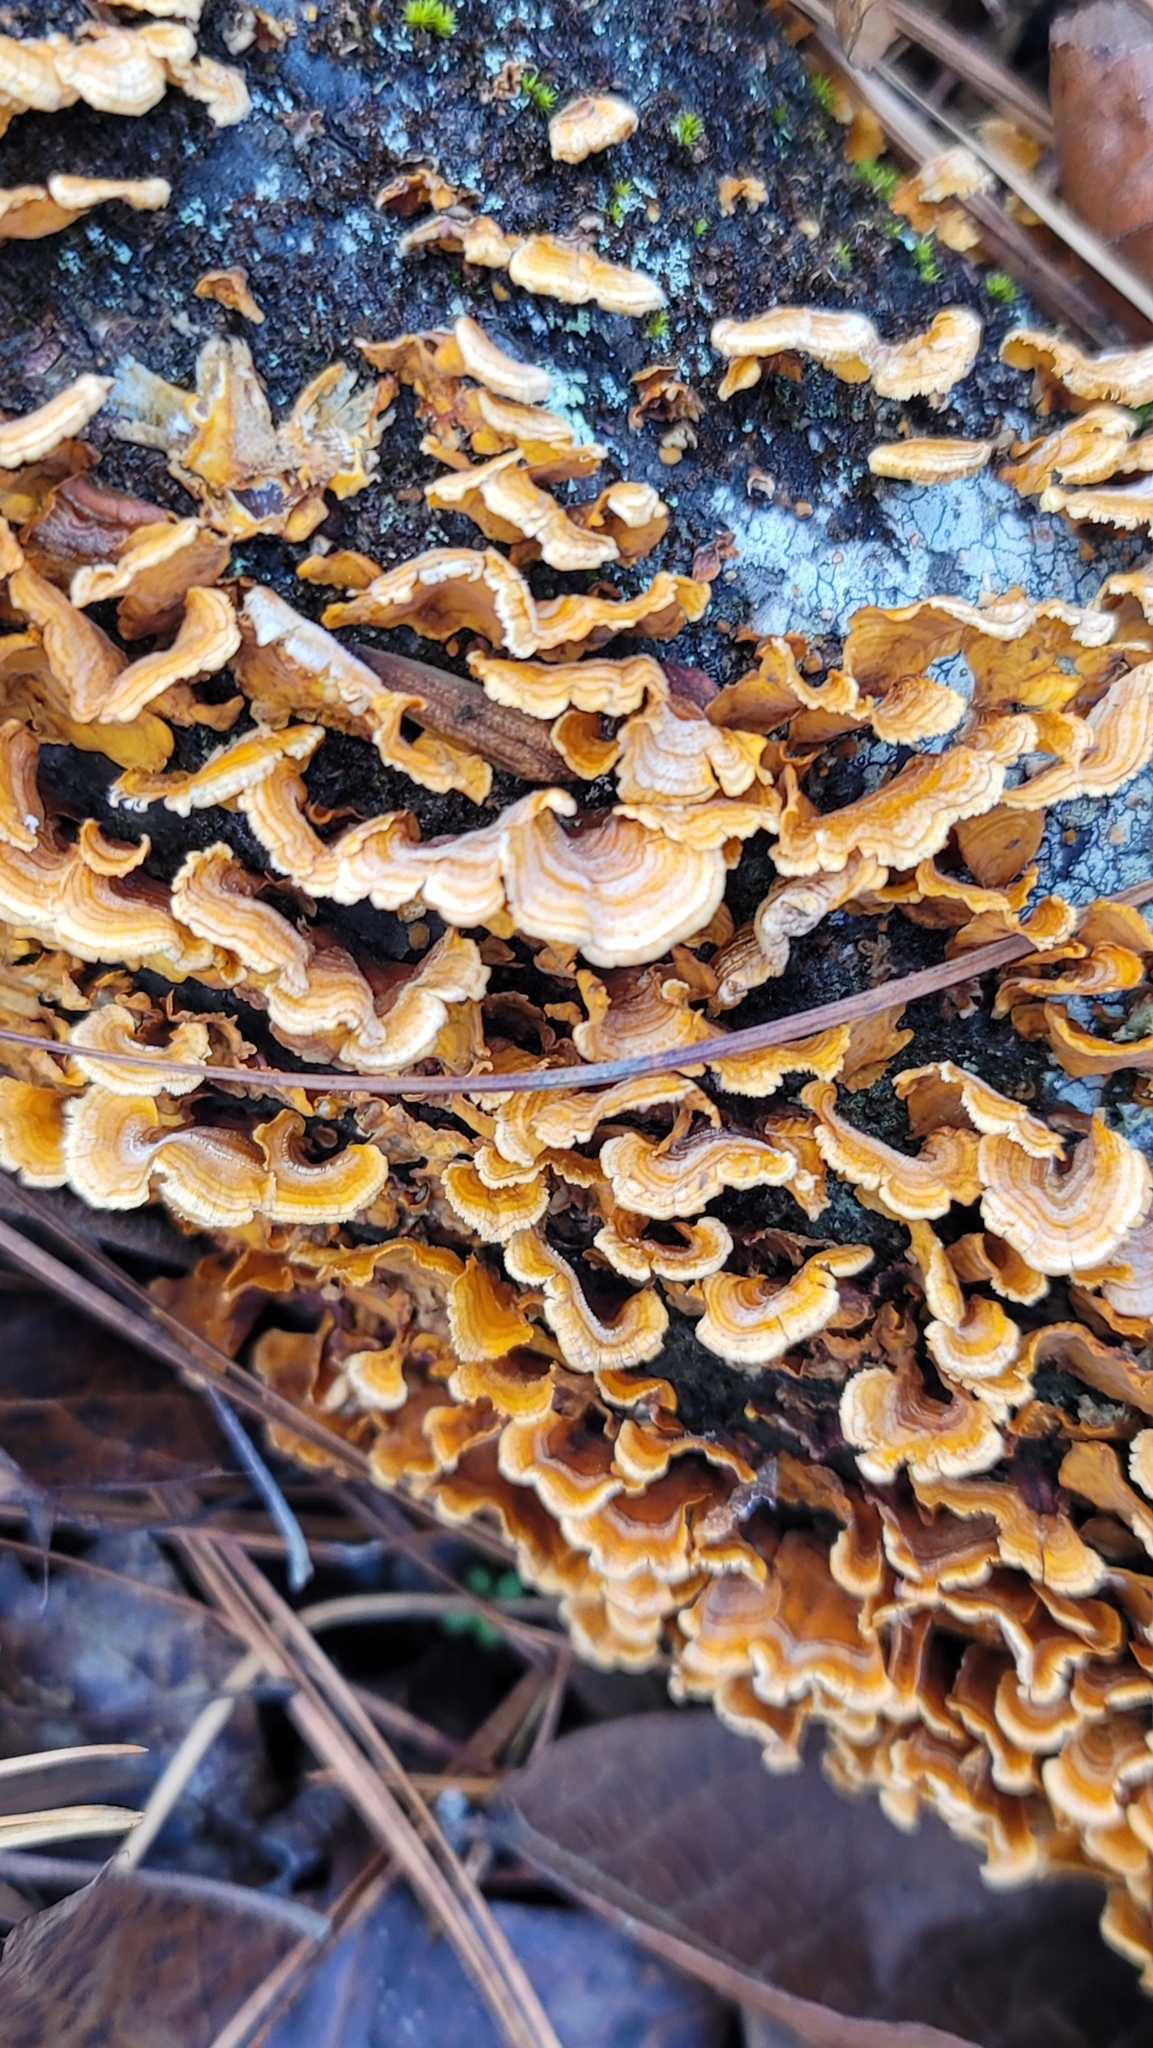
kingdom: Fungi
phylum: Basidiomycota
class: Agaricomycetes
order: Russulales
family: Stereaceae
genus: Stereum
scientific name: Stereum complicatum
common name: Crowded parchment
